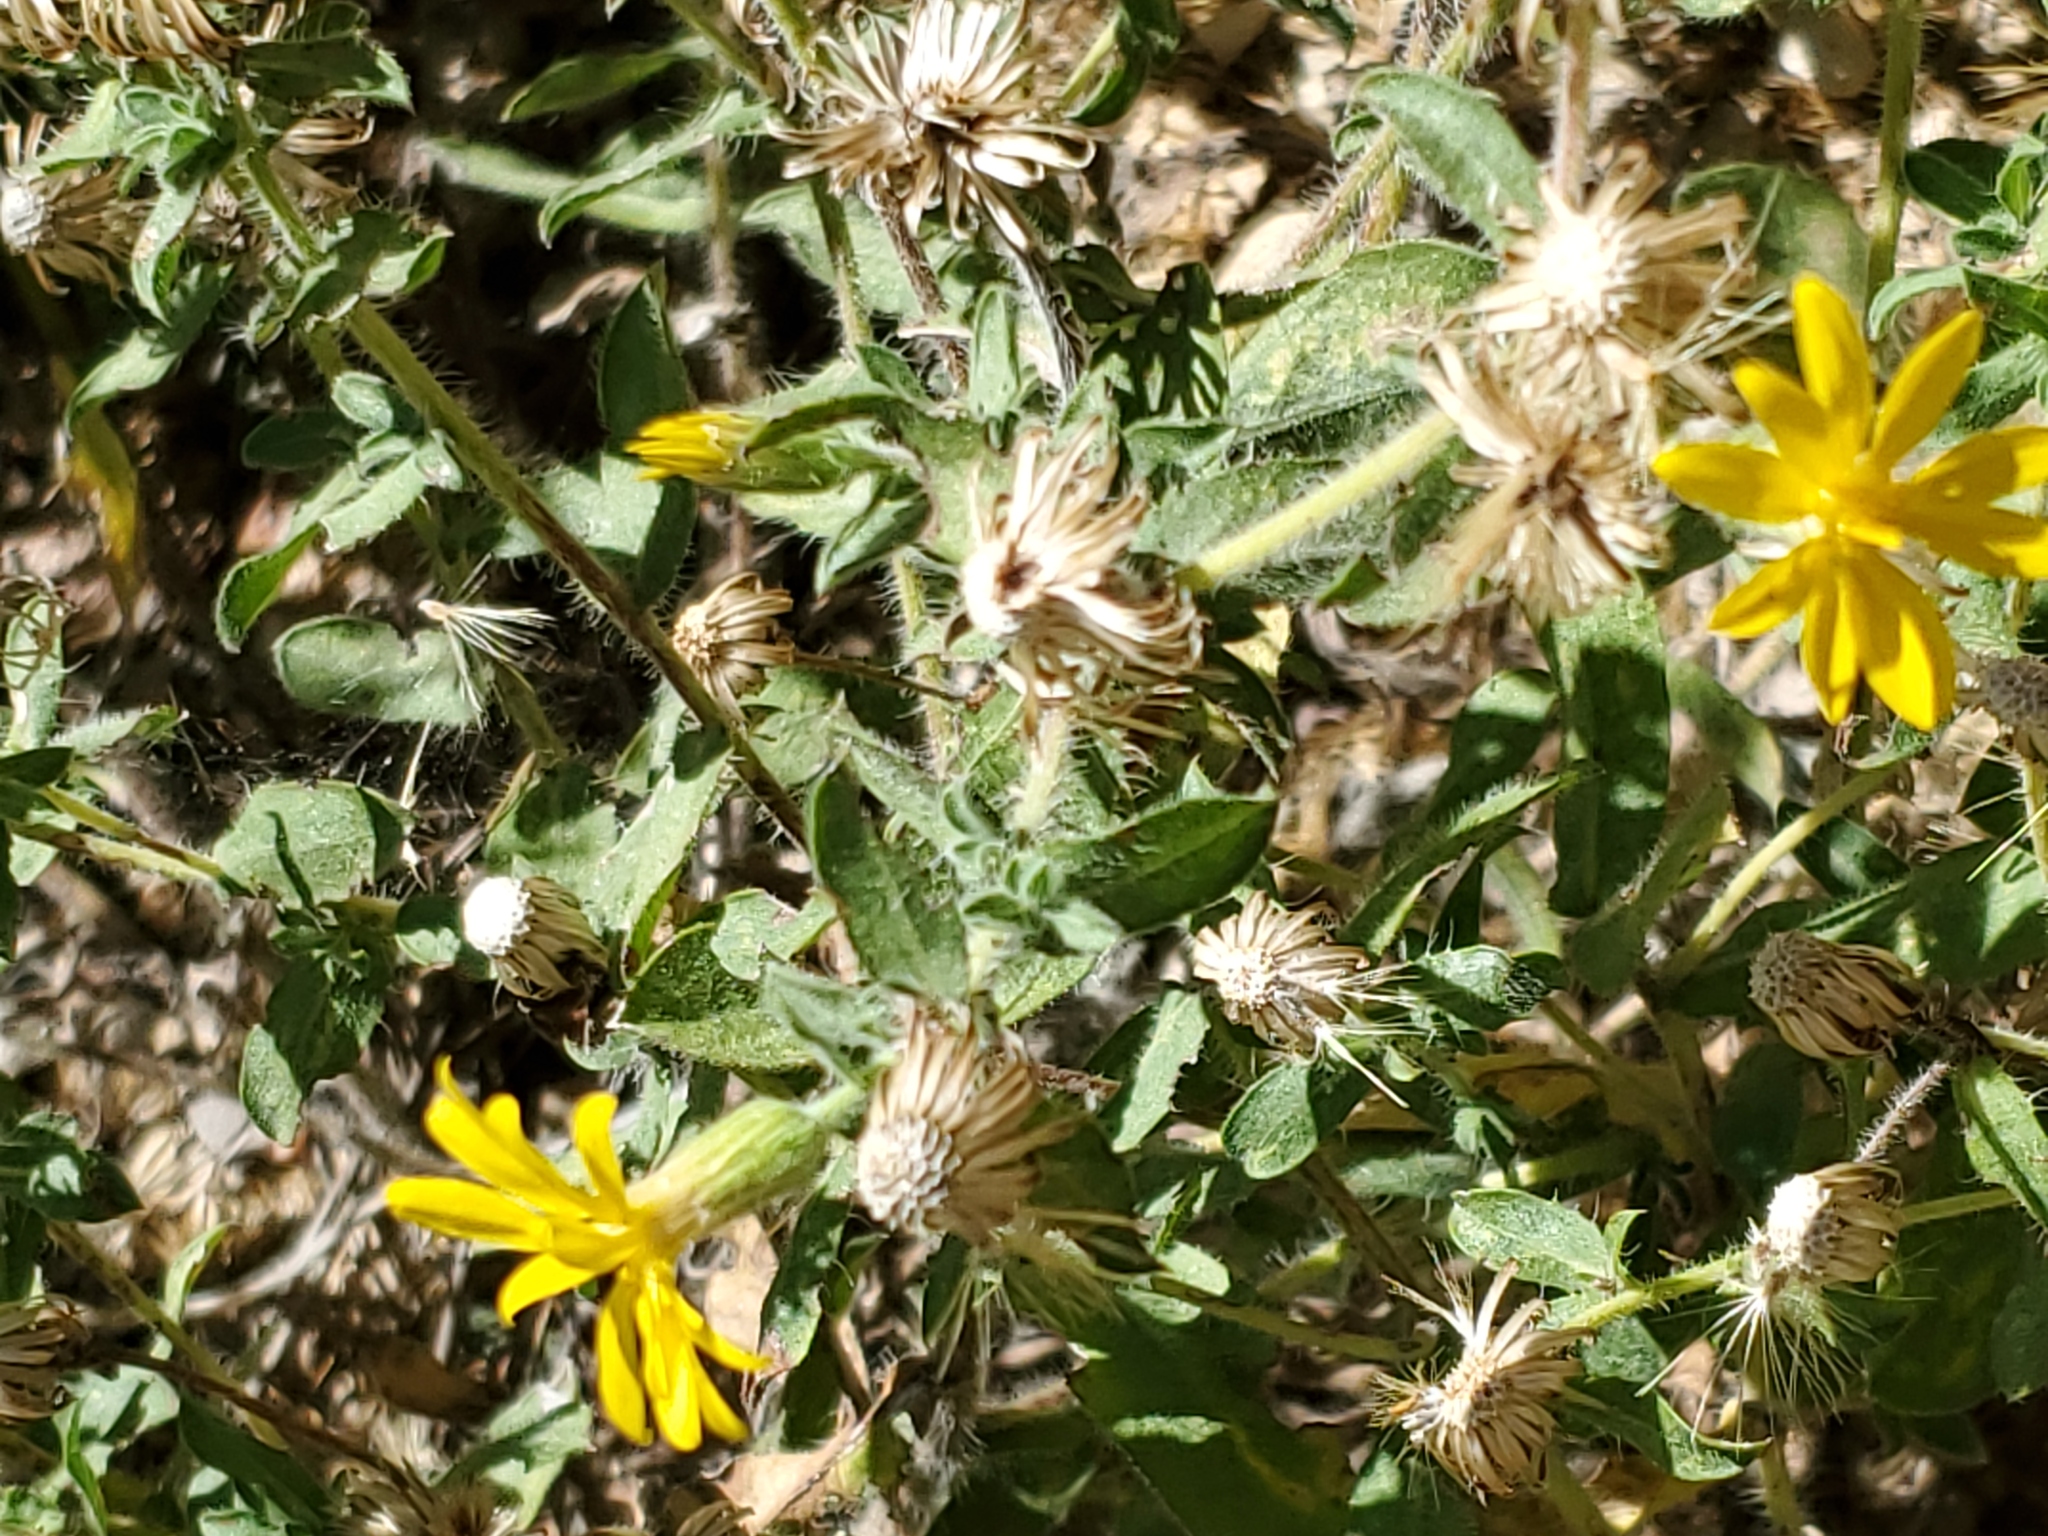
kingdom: Plantae
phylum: Tracheophyta
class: Magnoliopsida
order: Asterales
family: Asteraceae
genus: Heterotheca
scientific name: Heterotheca hispida
